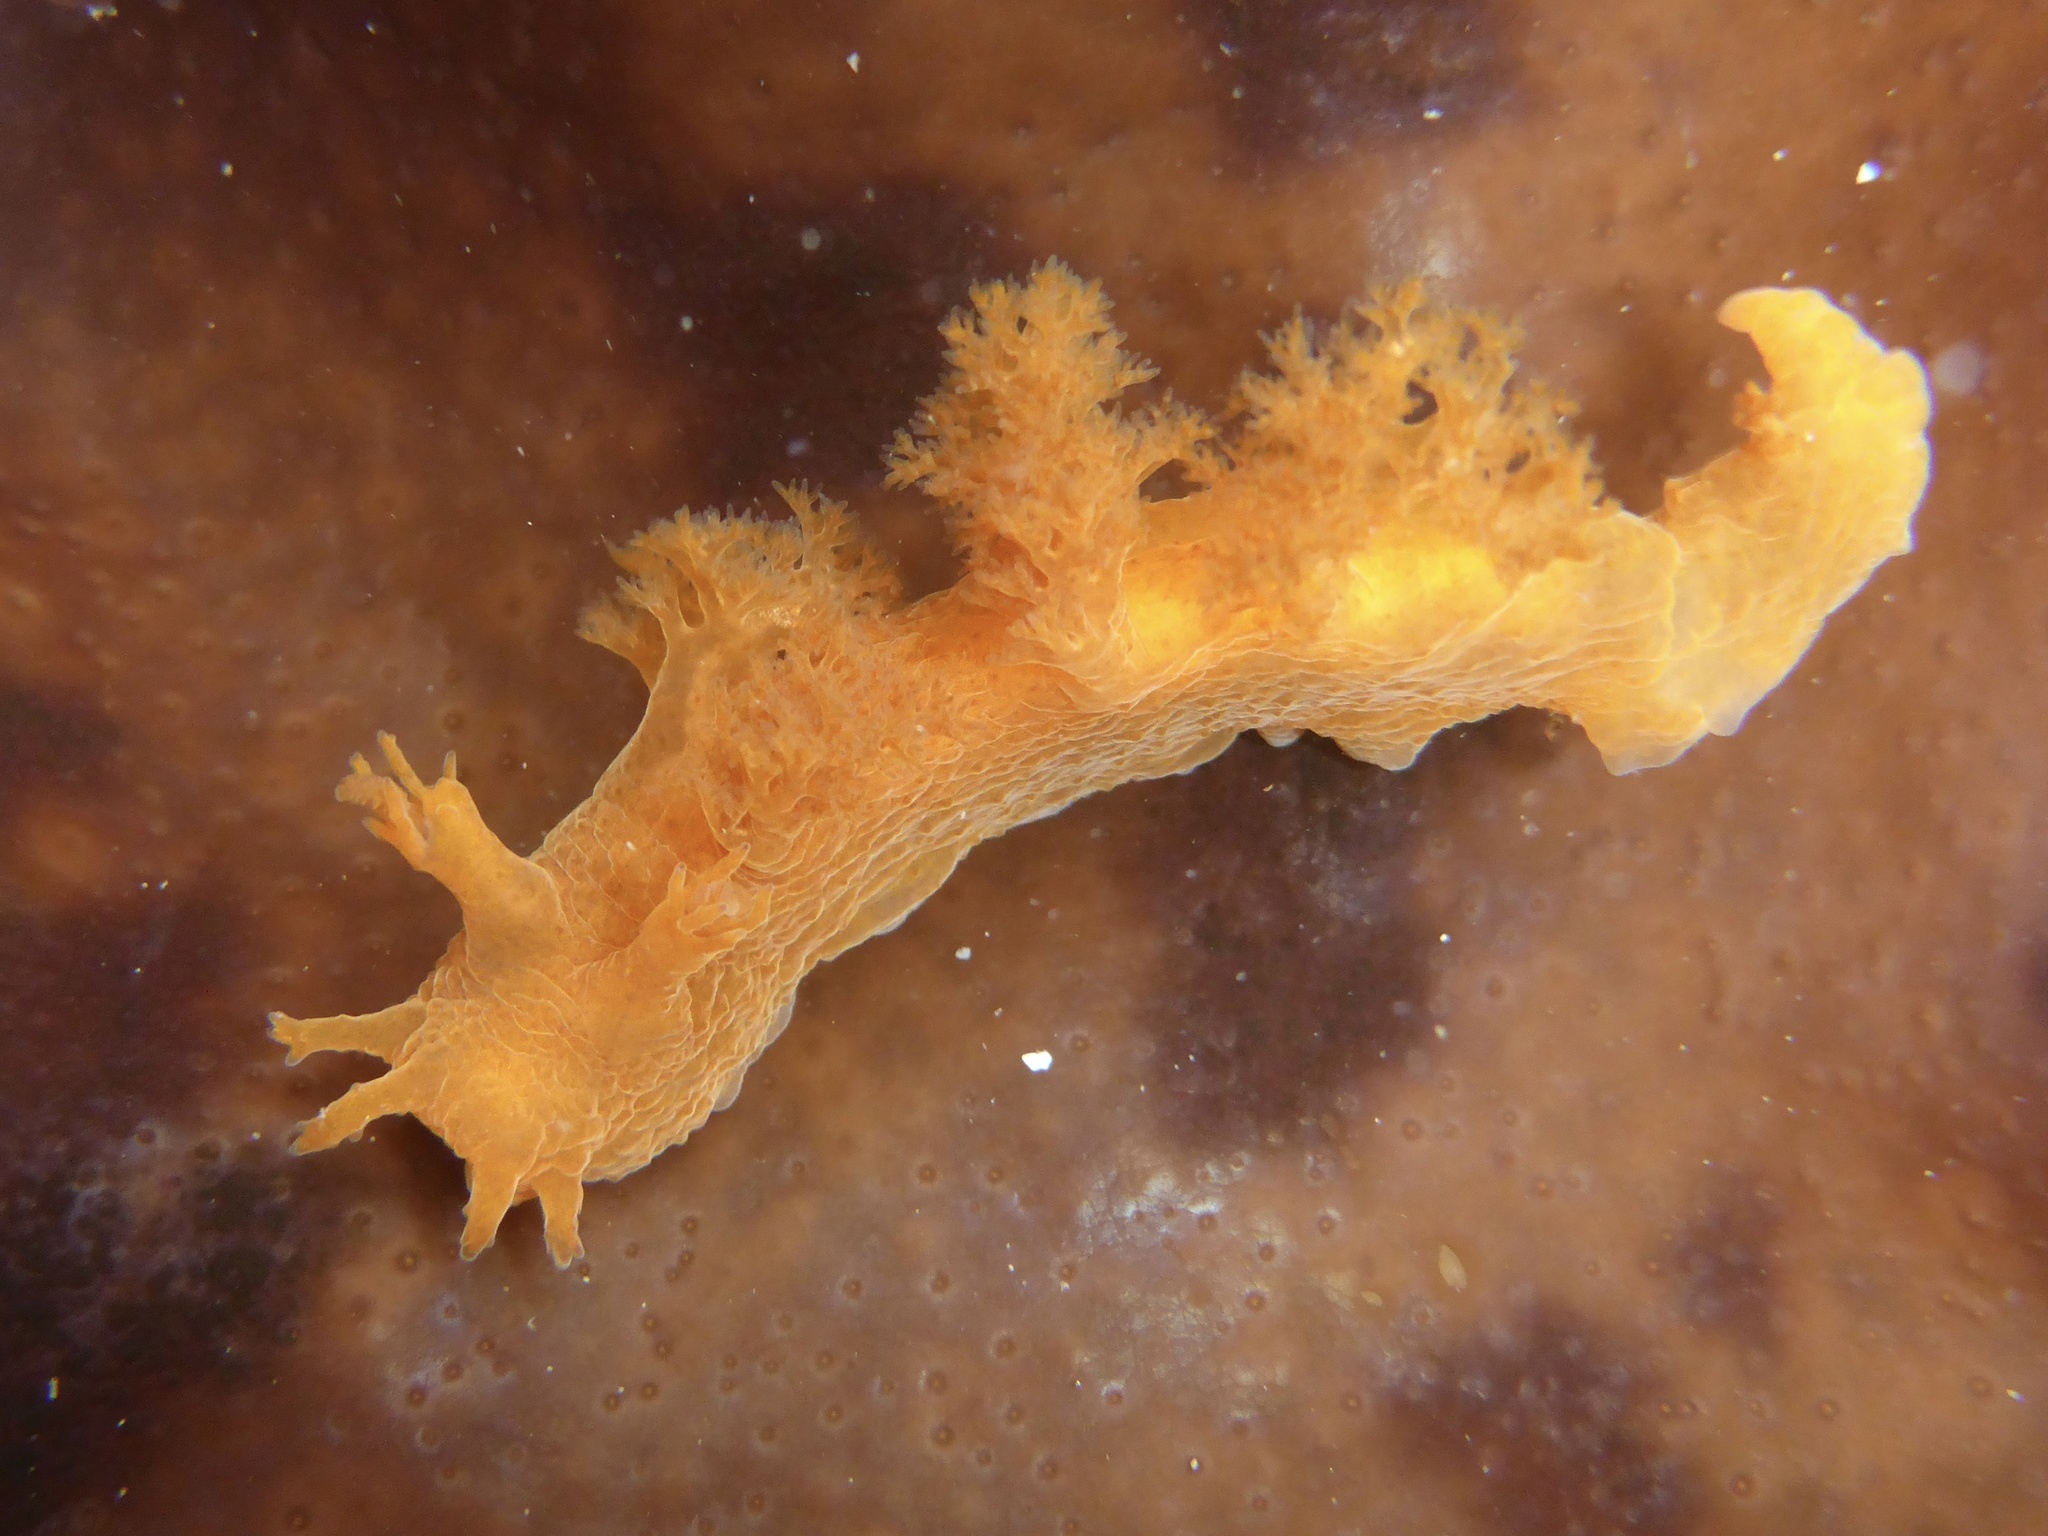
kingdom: Animalia
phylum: Mollusca
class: Gastropoda
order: Nudibranchia
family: Dendronotidae
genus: Dendronotus
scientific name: Dendronotus subramosus
